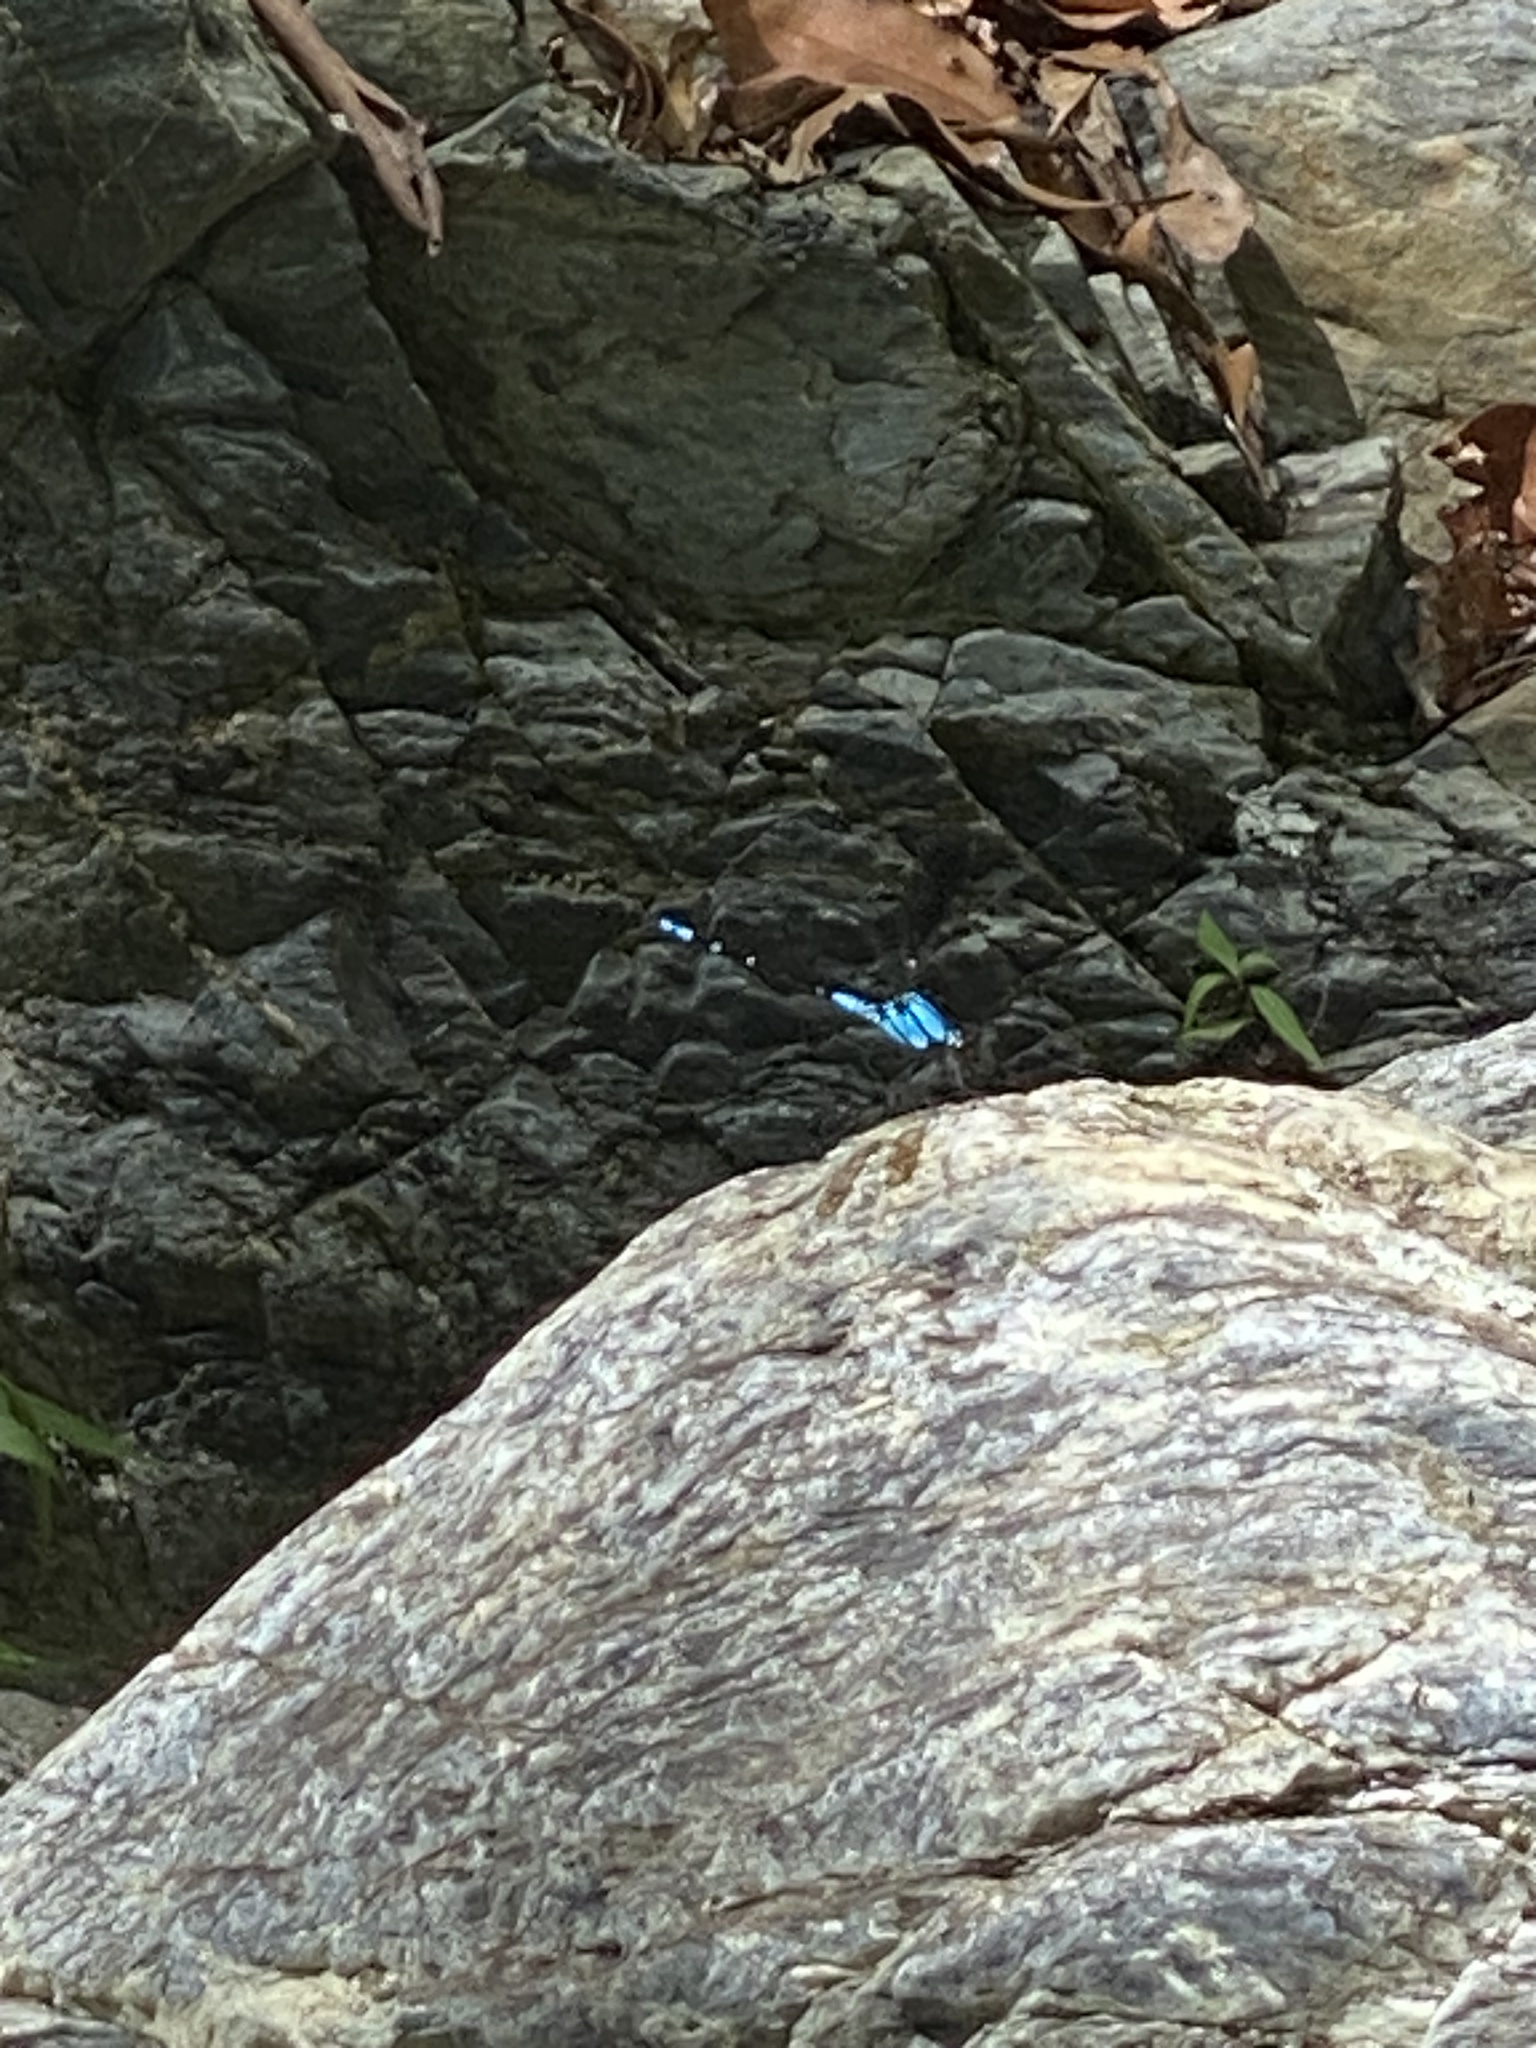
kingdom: Animalia
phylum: Arthropoda
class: Insecta
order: Odonata
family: Lestoideidae
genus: Diphlebia
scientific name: Diphlebia coerulescens
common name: Sapphire rockmaster
